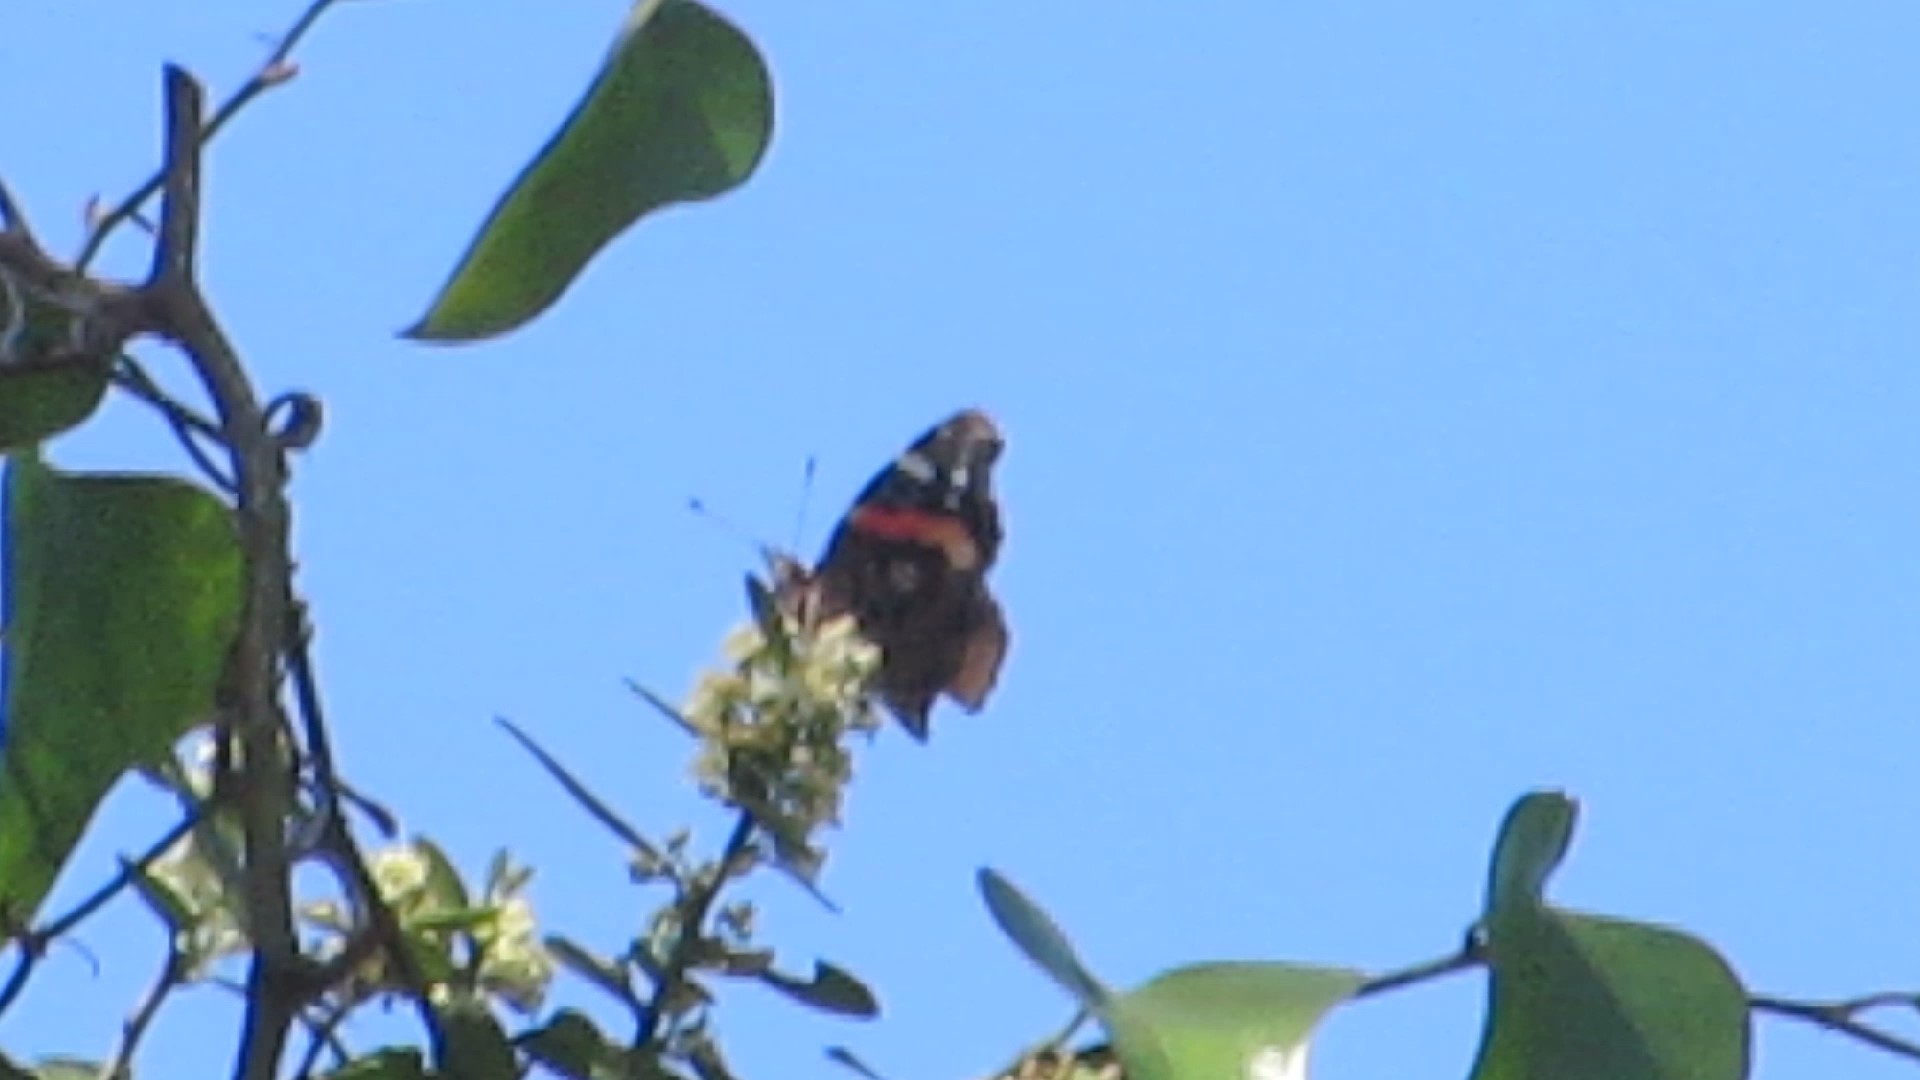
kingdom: Animalia
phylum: Arthropoda
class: Insecta
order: Lepidoptera
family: Nymphalidae
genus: Vanessa
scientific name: Vanessa atalanta
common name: Red admiral
